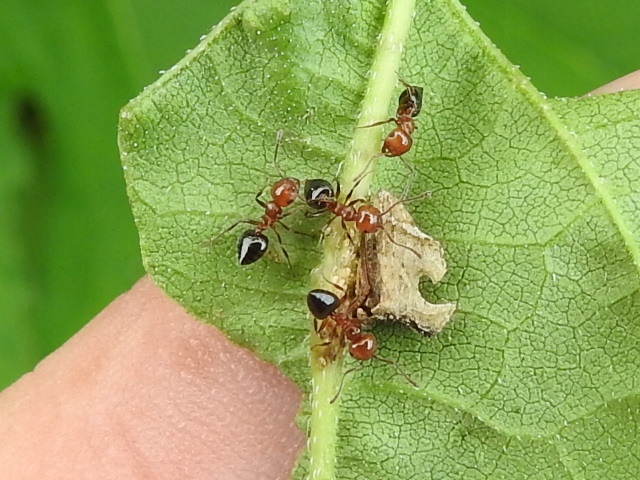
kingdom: Animalia
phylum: Arthropoda
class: Insecta
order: Hymenoptera
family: Formicidae
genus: Crematogaster
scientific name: Crematogaster laeviuscula
